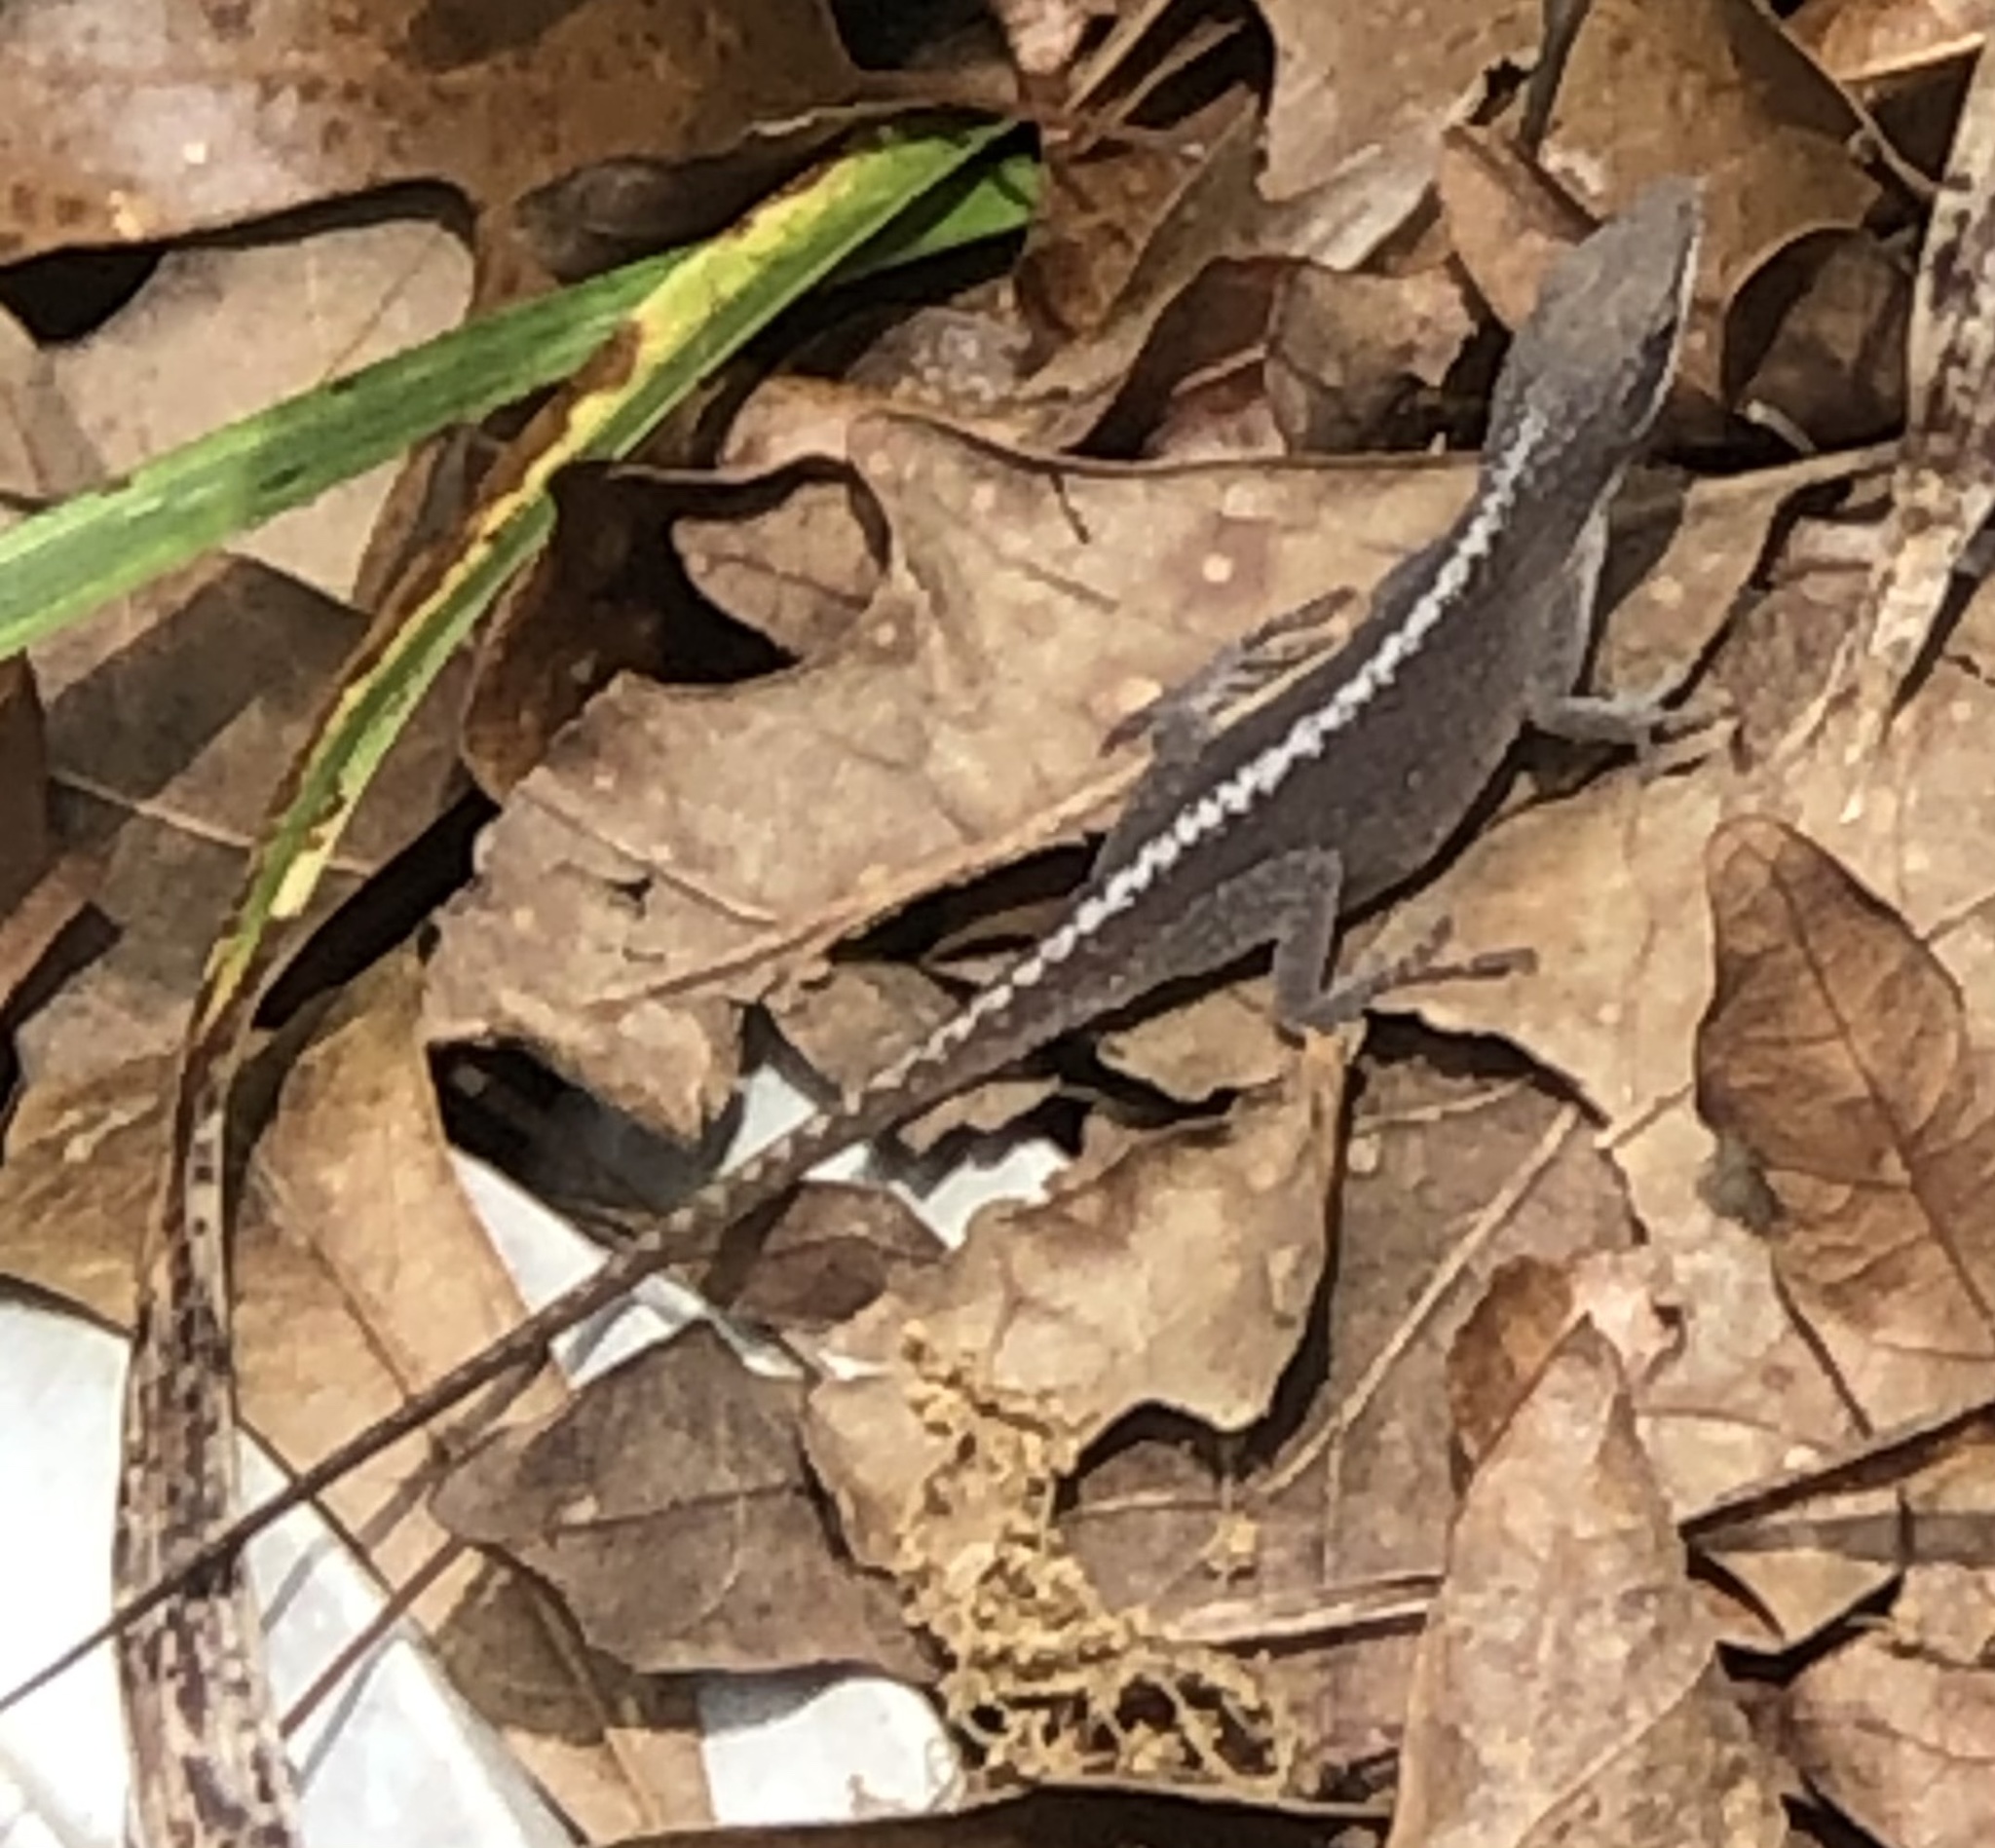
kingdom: Animalia
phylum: Chordata
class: Squamata
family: Dactyloidae
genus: Anolis
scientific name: Anolis carolinensis
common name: Green anole
